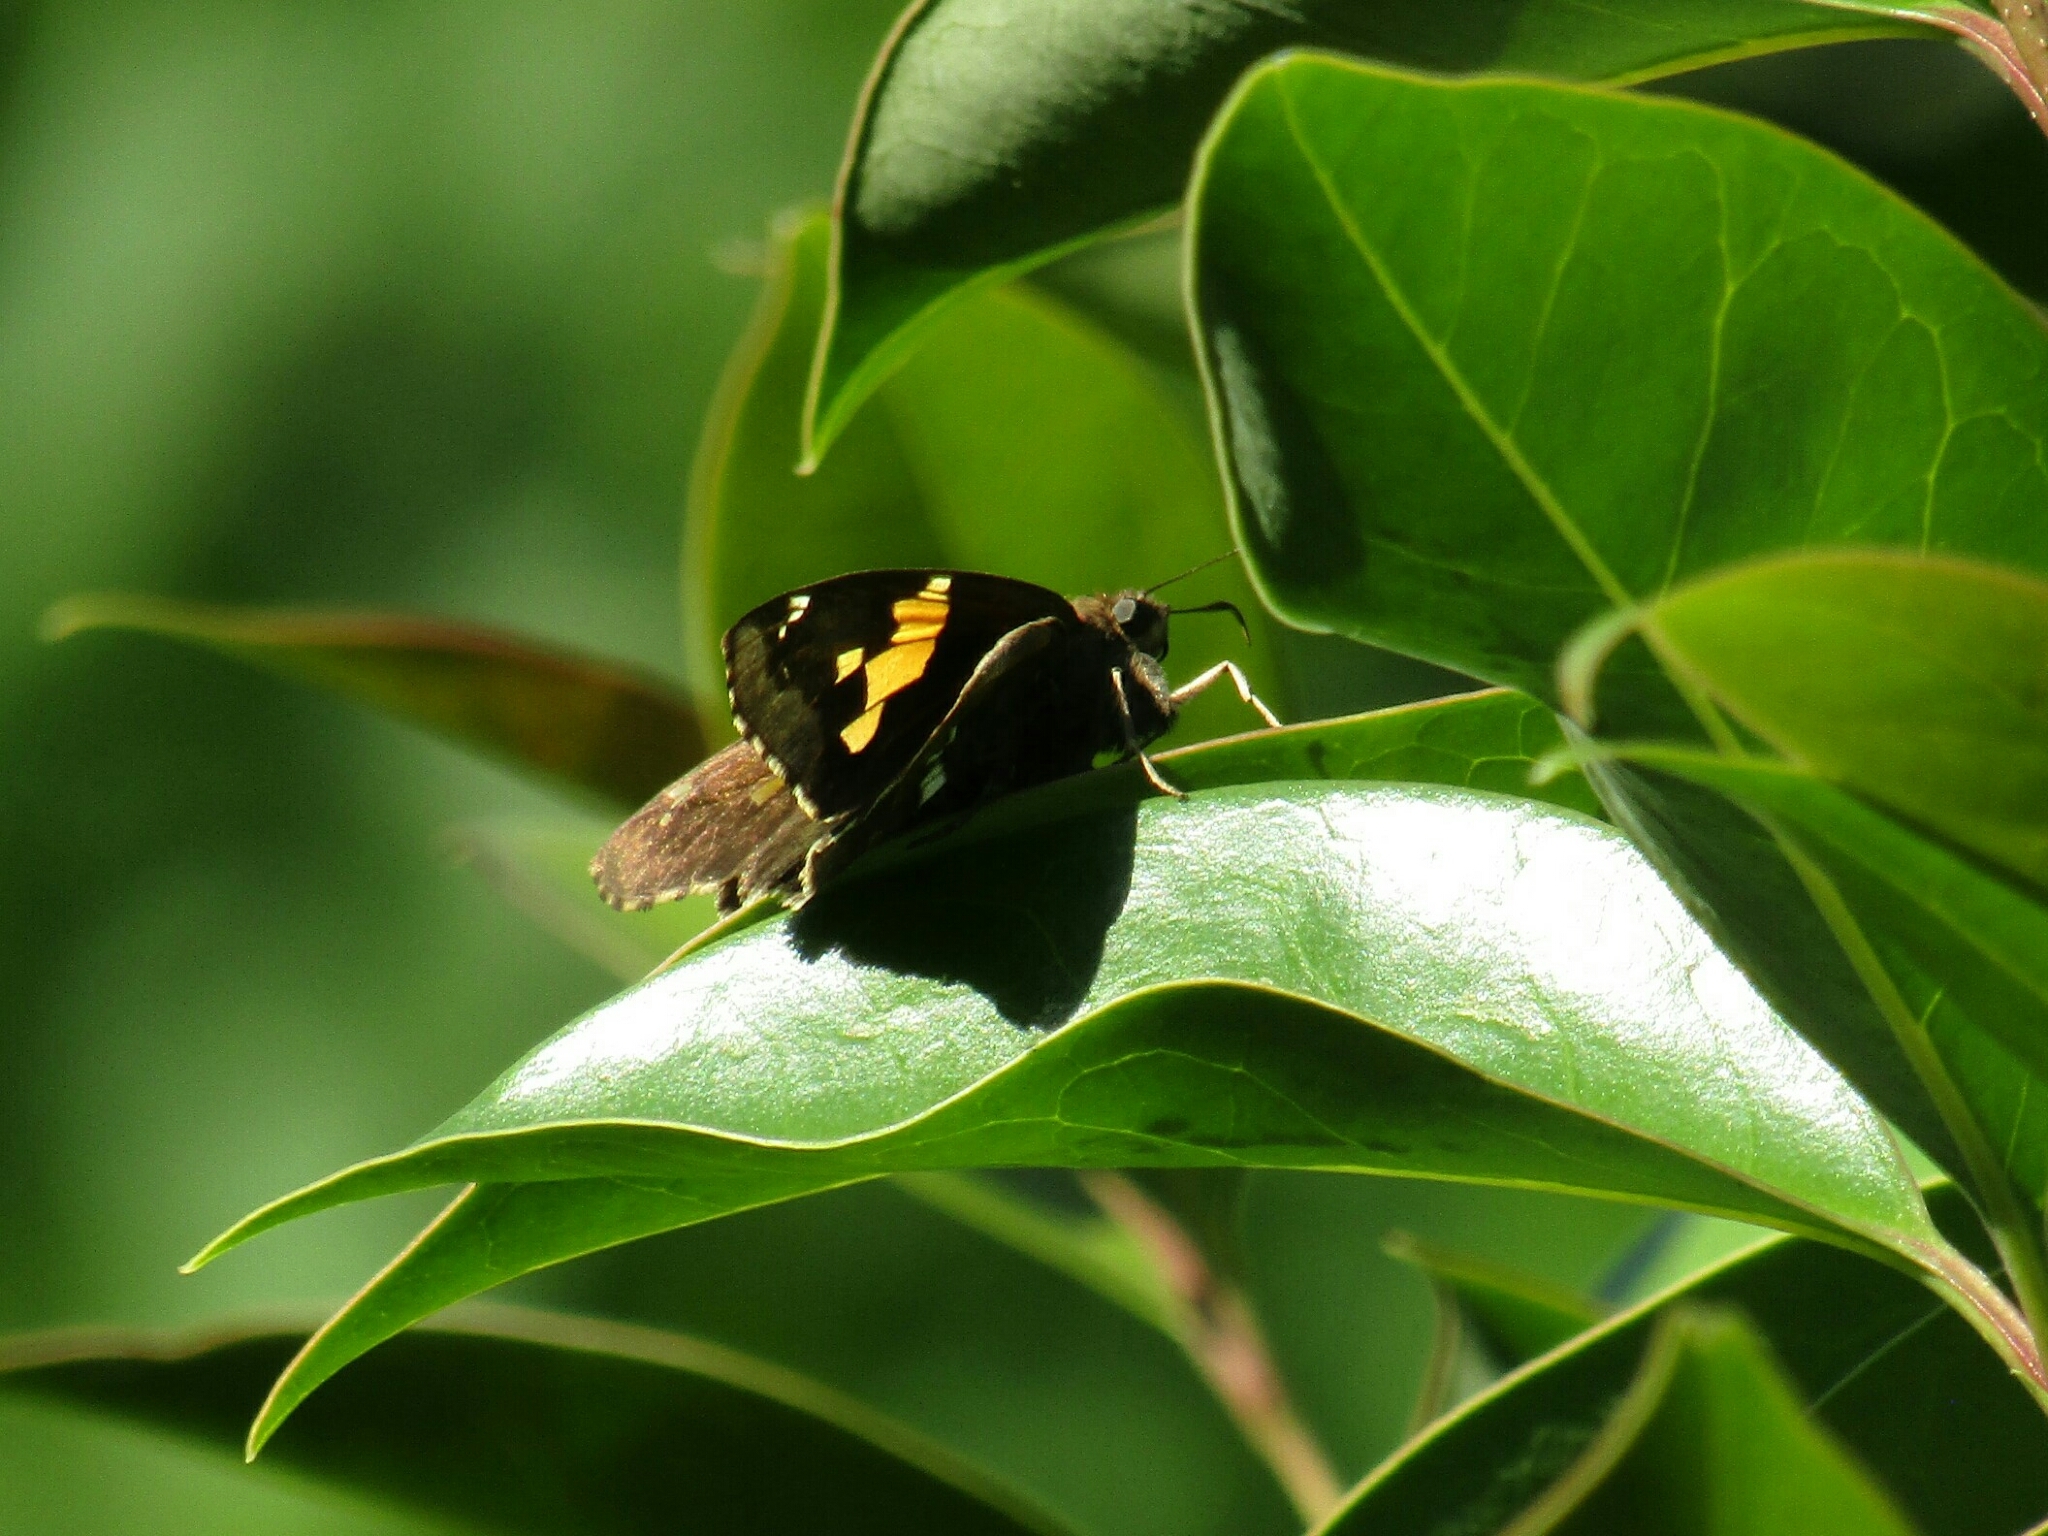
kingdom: Animalia
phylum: Arthropoda
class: Insecta
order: Lepidoptera
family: Hesperiidae
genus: Epargyreus
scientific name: Epargyreus tmolis
